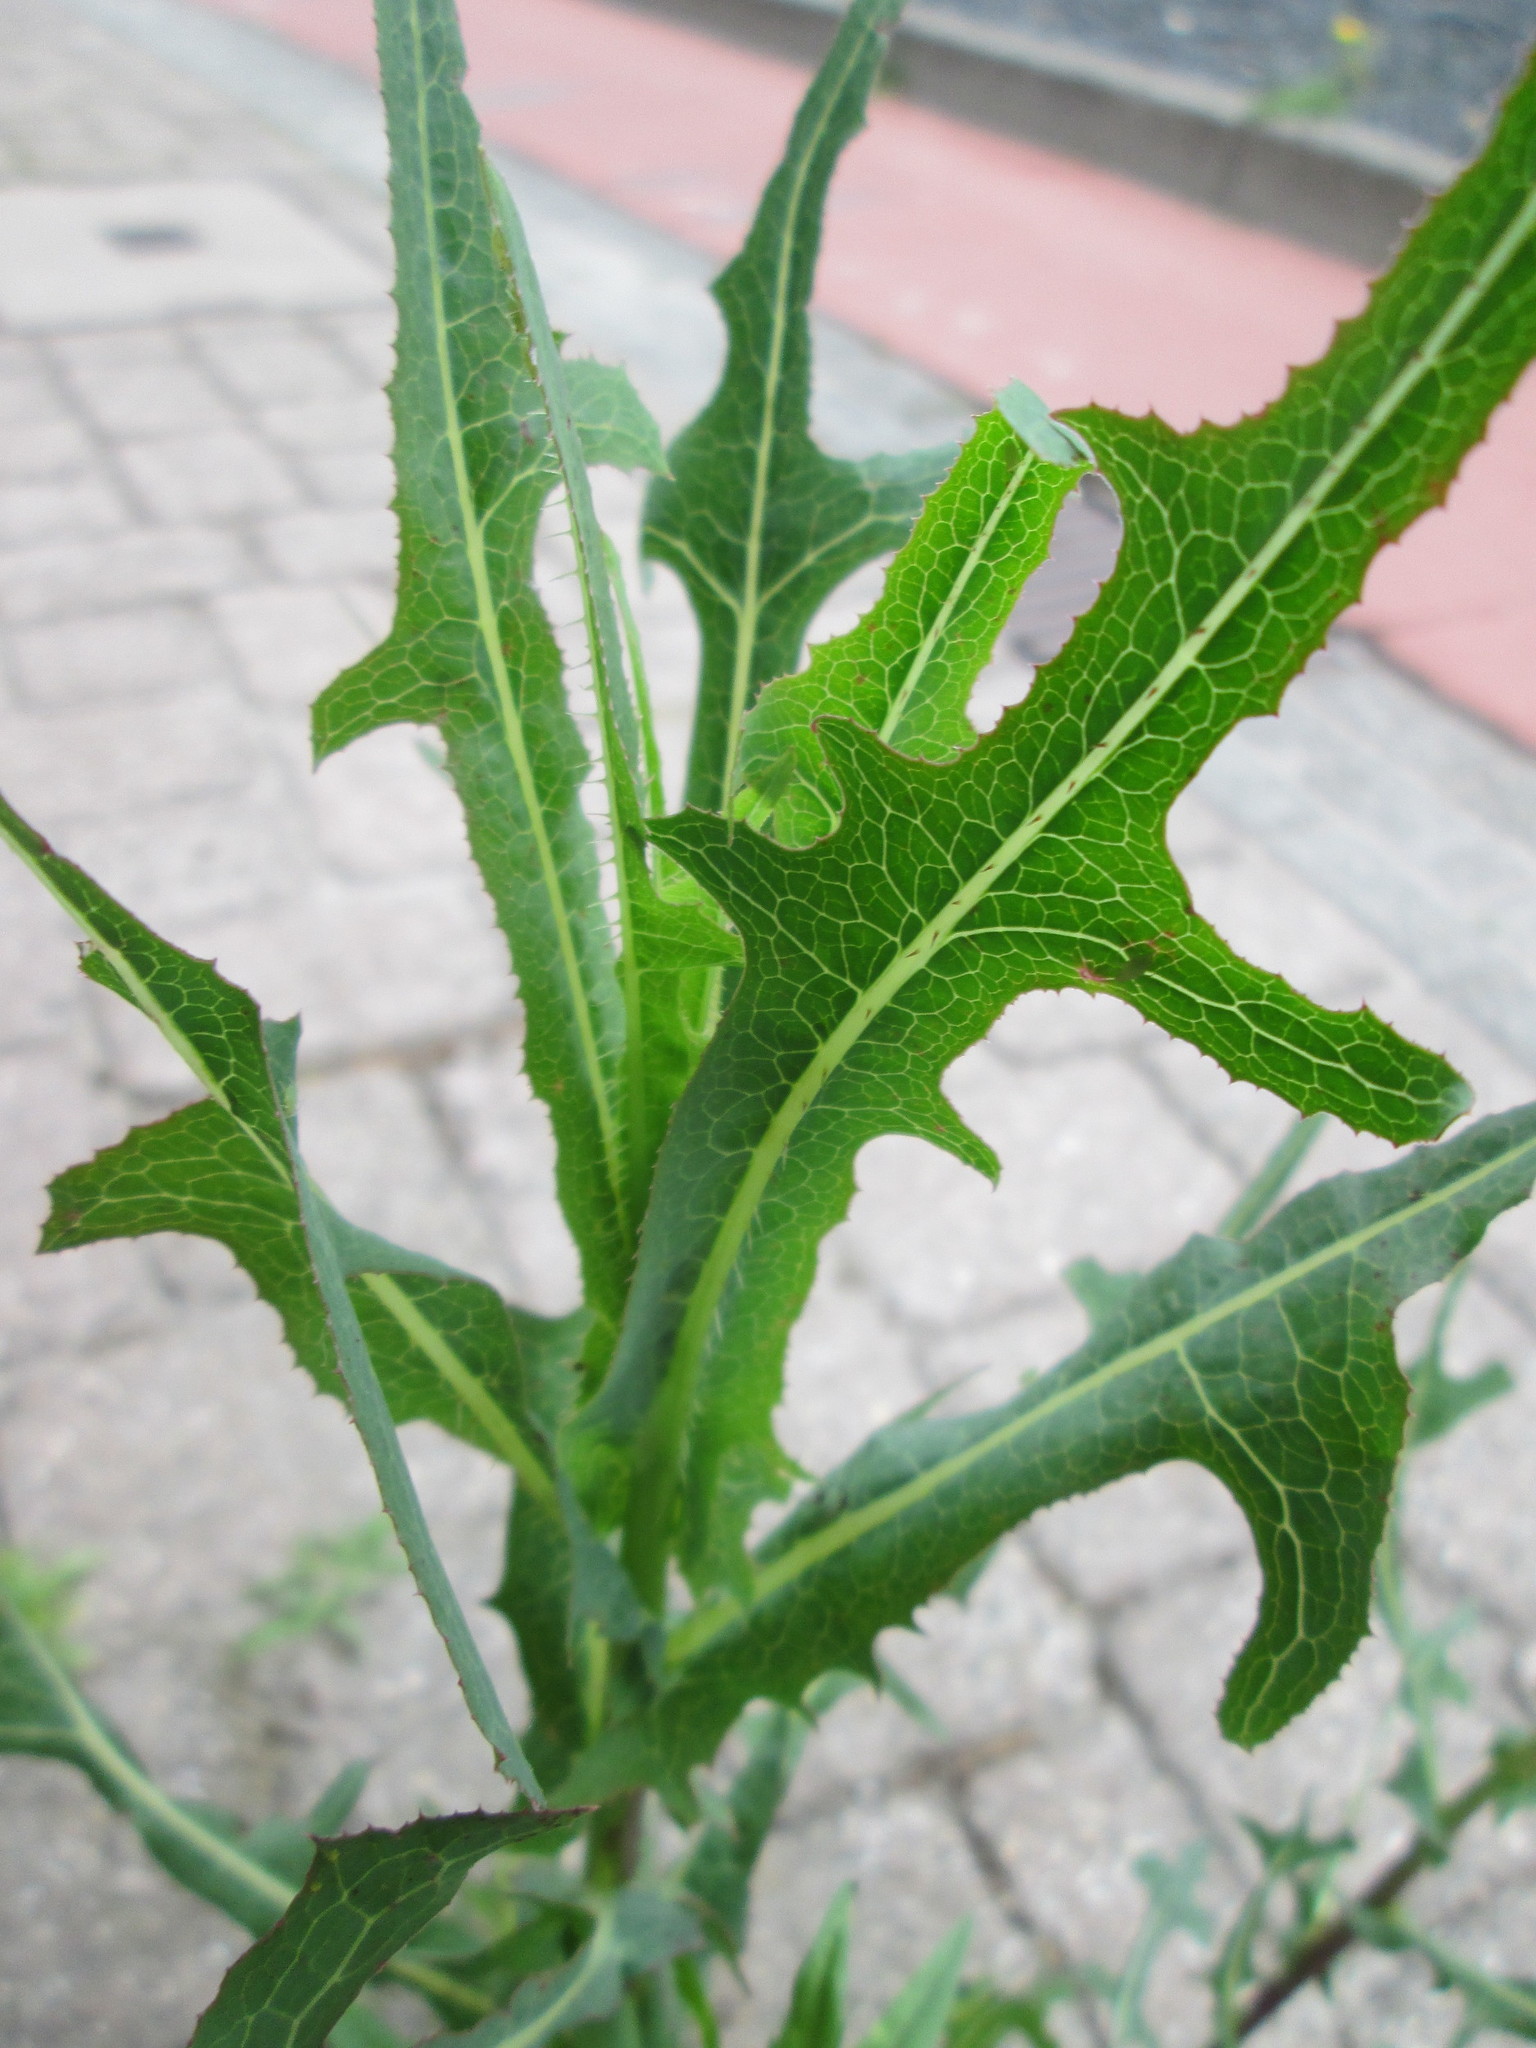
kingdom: Plantae
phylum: Tracheophyta
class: Magnoliopsida
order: Asterales
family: Asteraceae
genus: Lactuca
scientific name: Lactuca serriola
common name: Prickly lettuce
